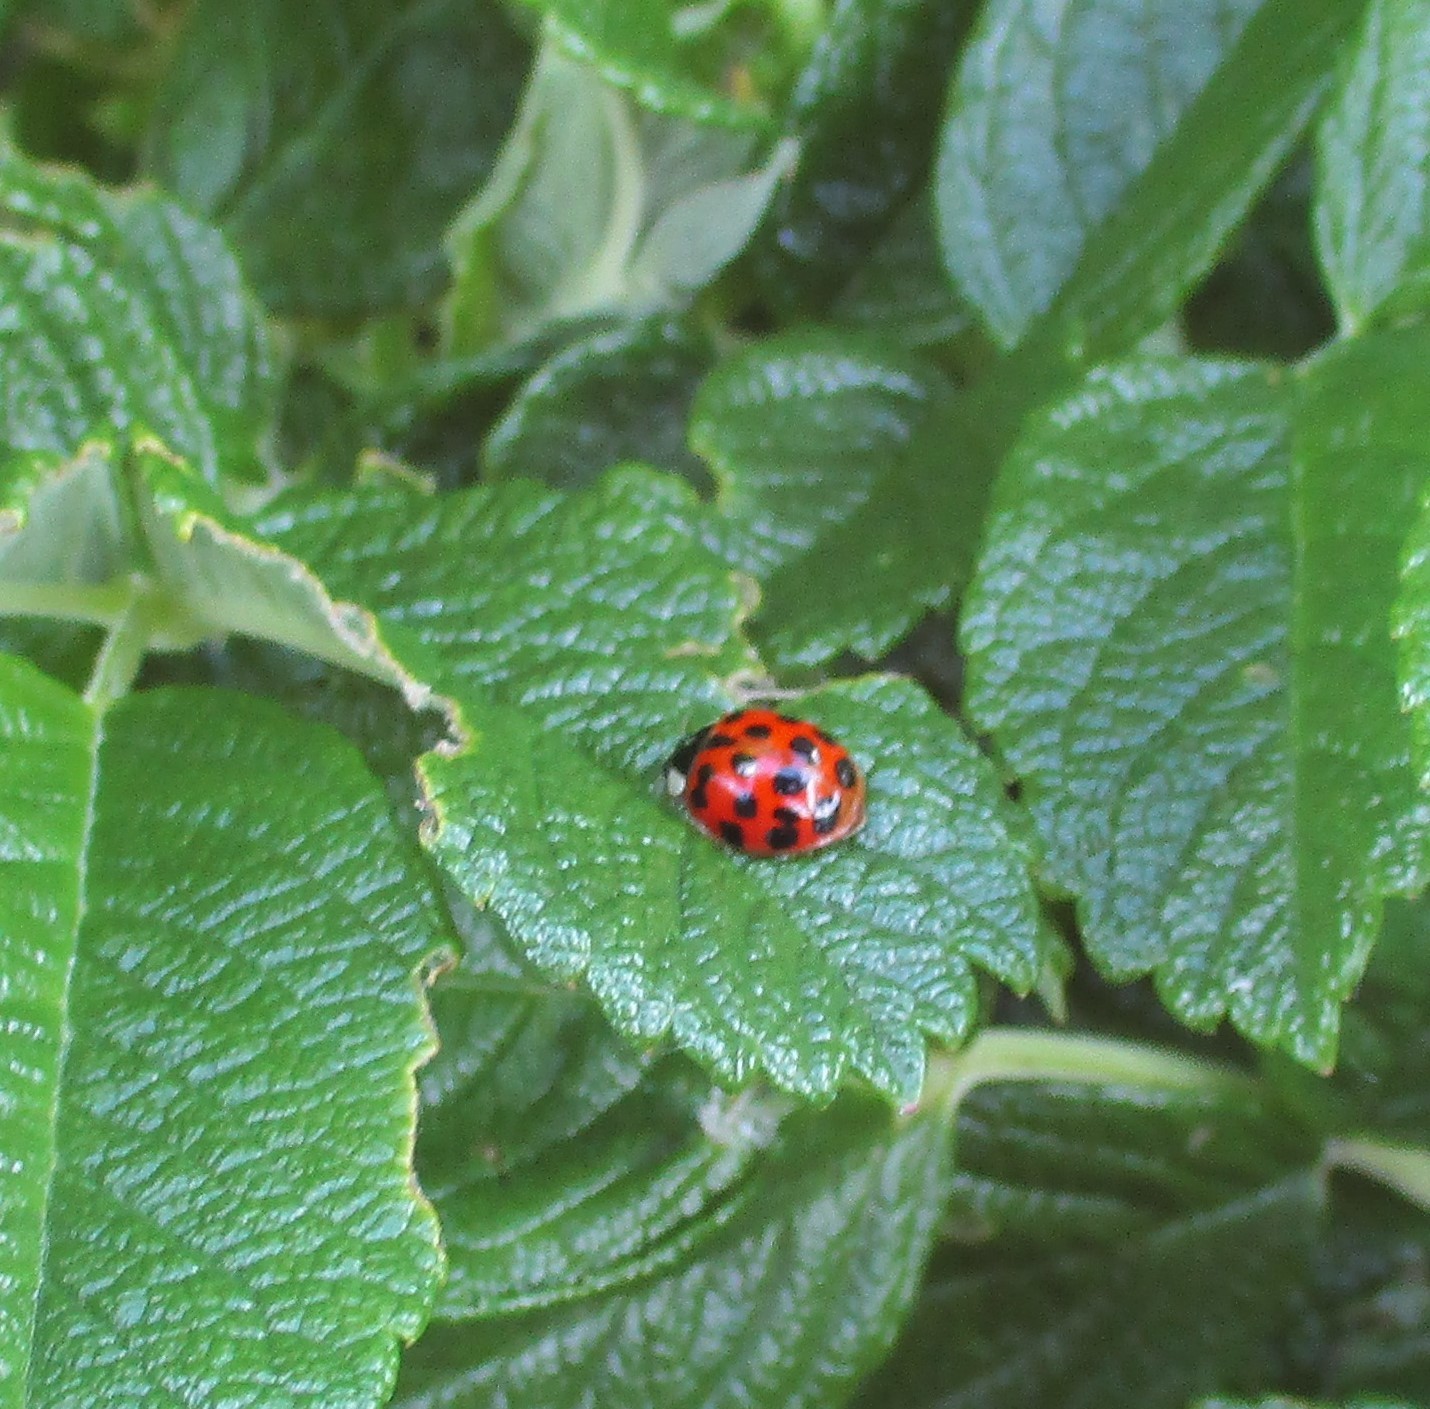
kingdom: Animalia
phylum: Arthropoda
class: Insecta
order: Coleoptera
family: Coccinellidae
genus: Harmonia
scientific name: Harmonia axyridis
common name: Harlequin ladybird
